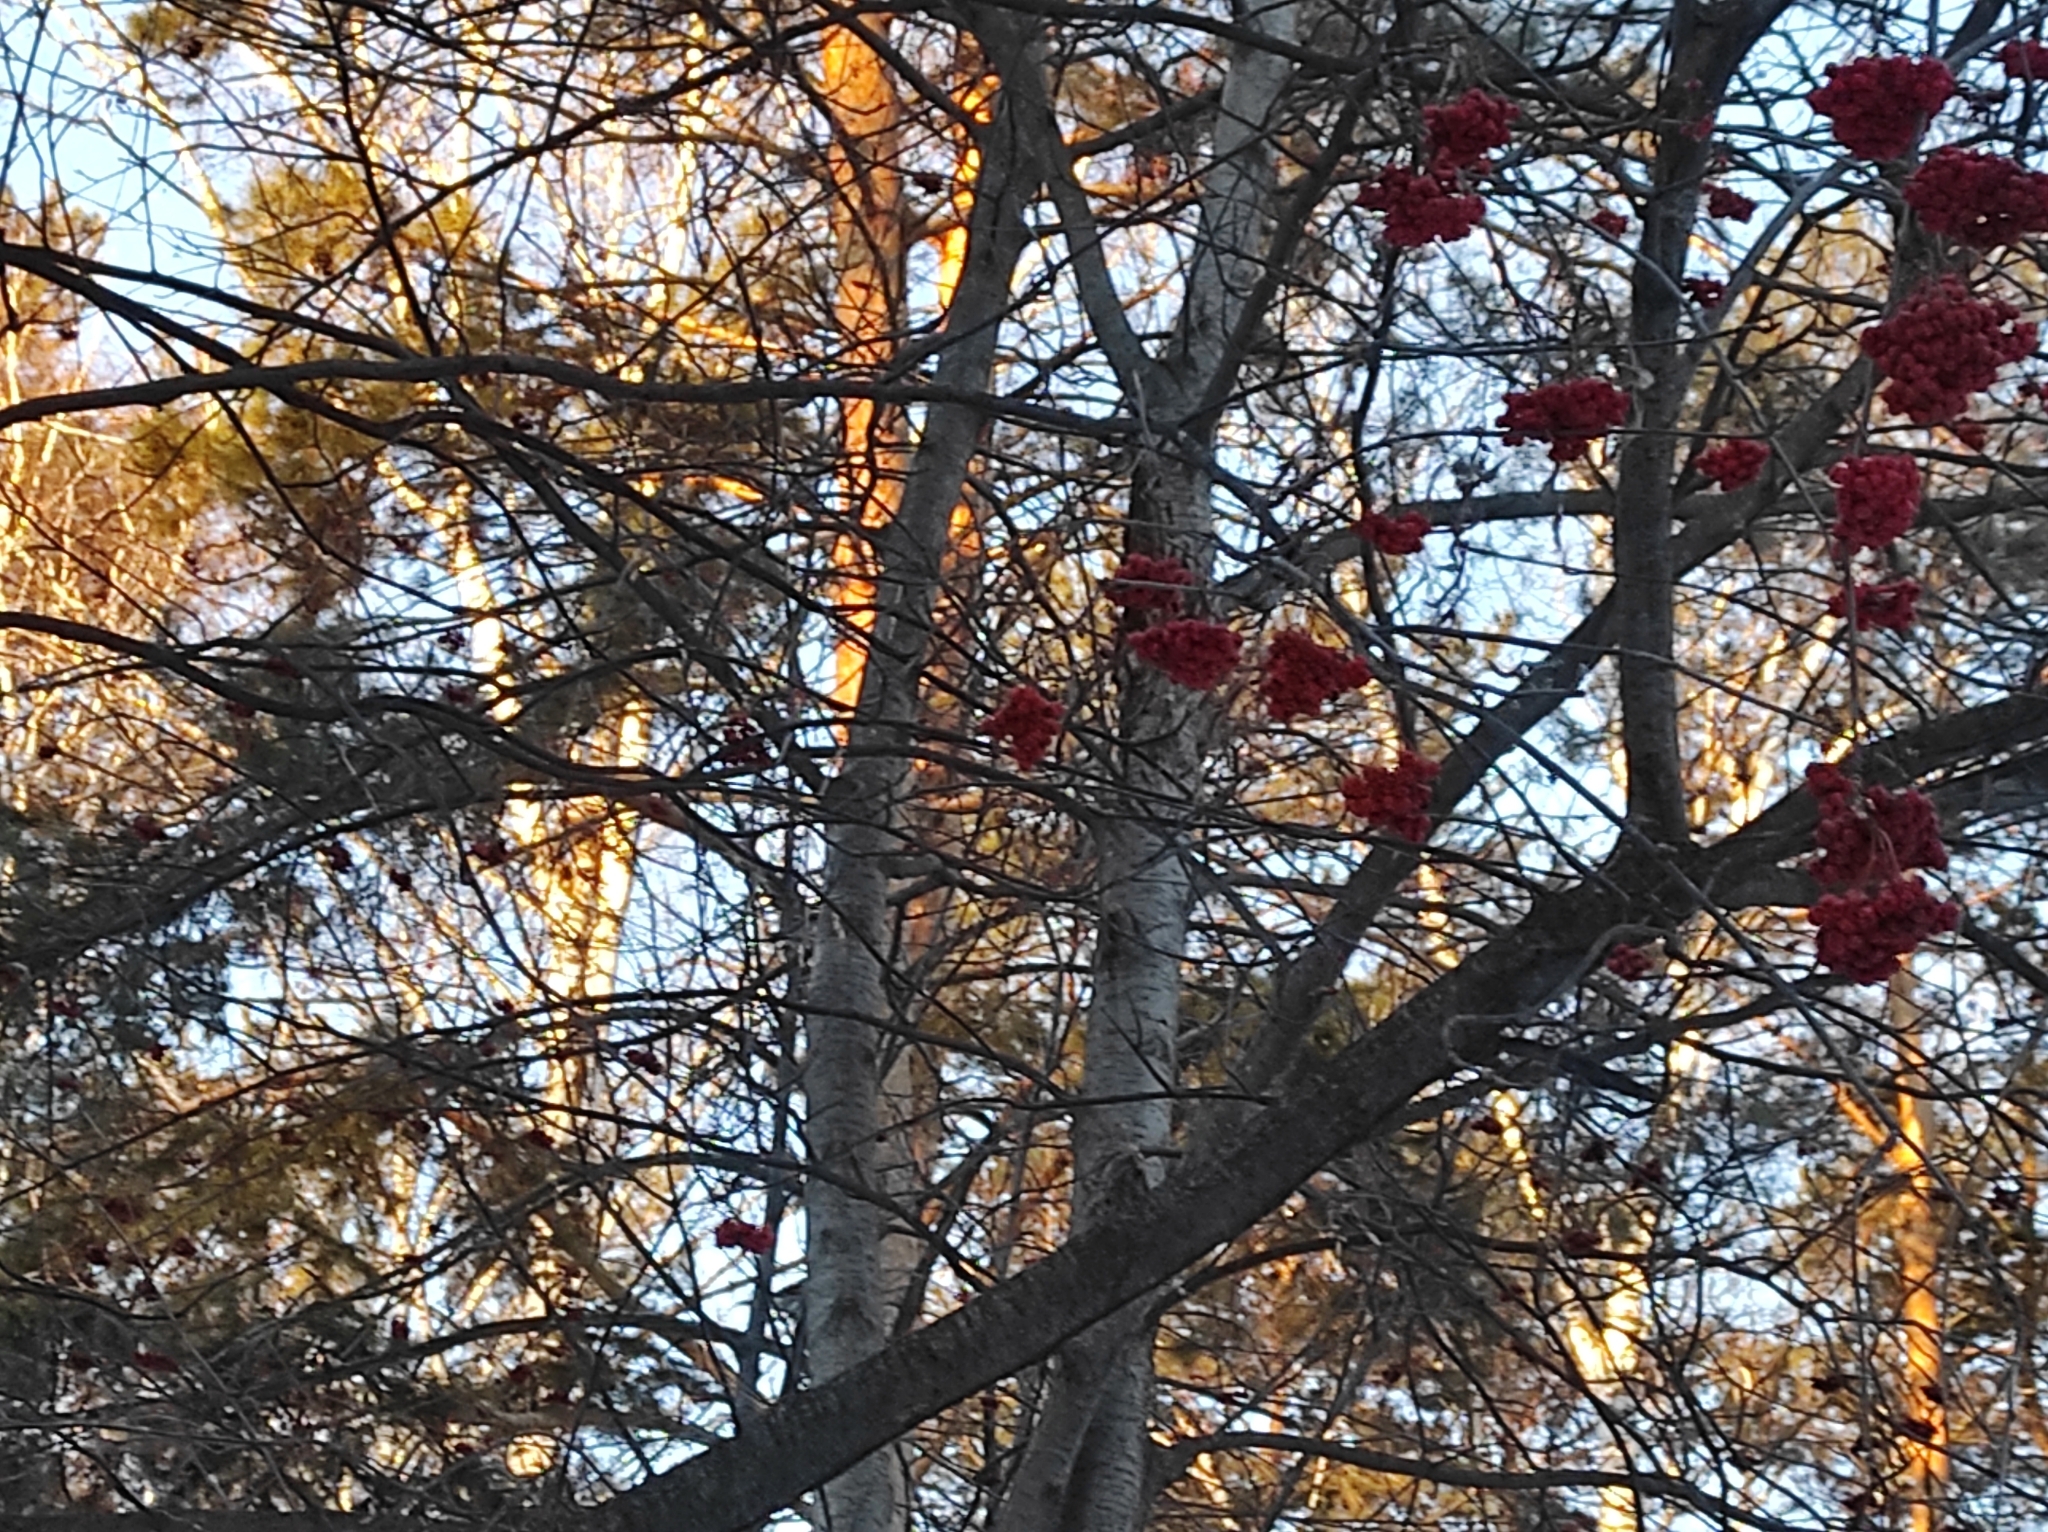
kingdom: Animalia
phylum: Chordata
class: Aves
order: Passeriformes
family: Turdidae
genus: Turdus
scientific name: Turdus pilaris
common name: Fieldfare
